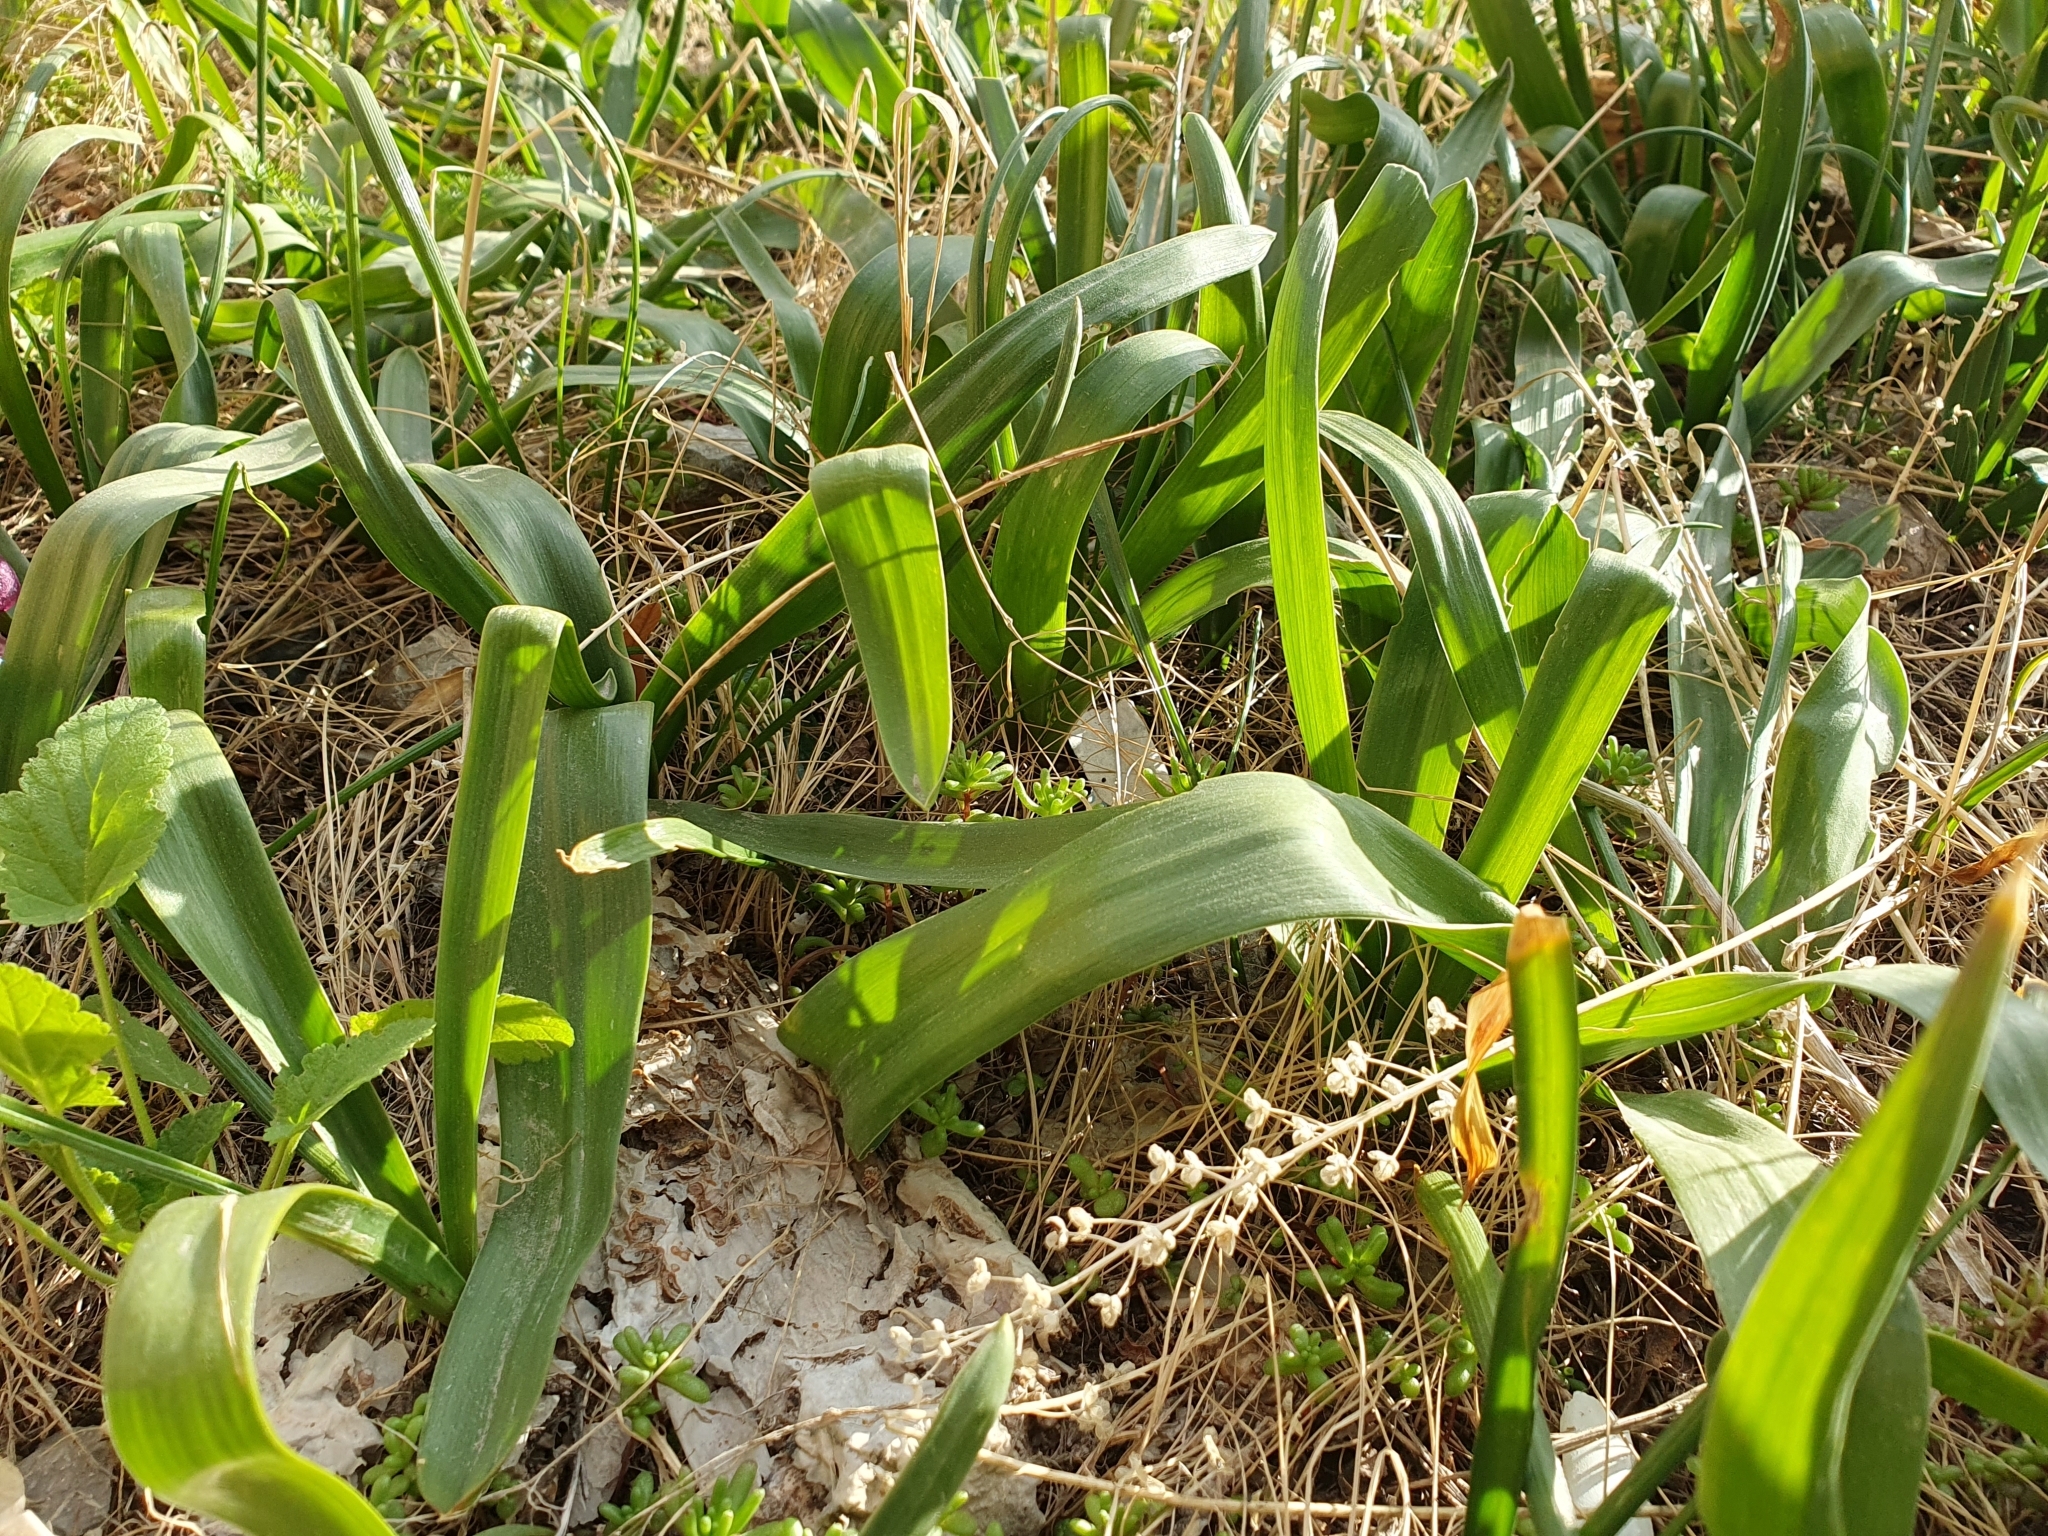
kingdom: Plantae
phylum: Tracheophyta
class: Liliopsida
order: Asparagales
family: Asparagaceae
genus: Prospero
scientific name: Prospero obtusifolium
